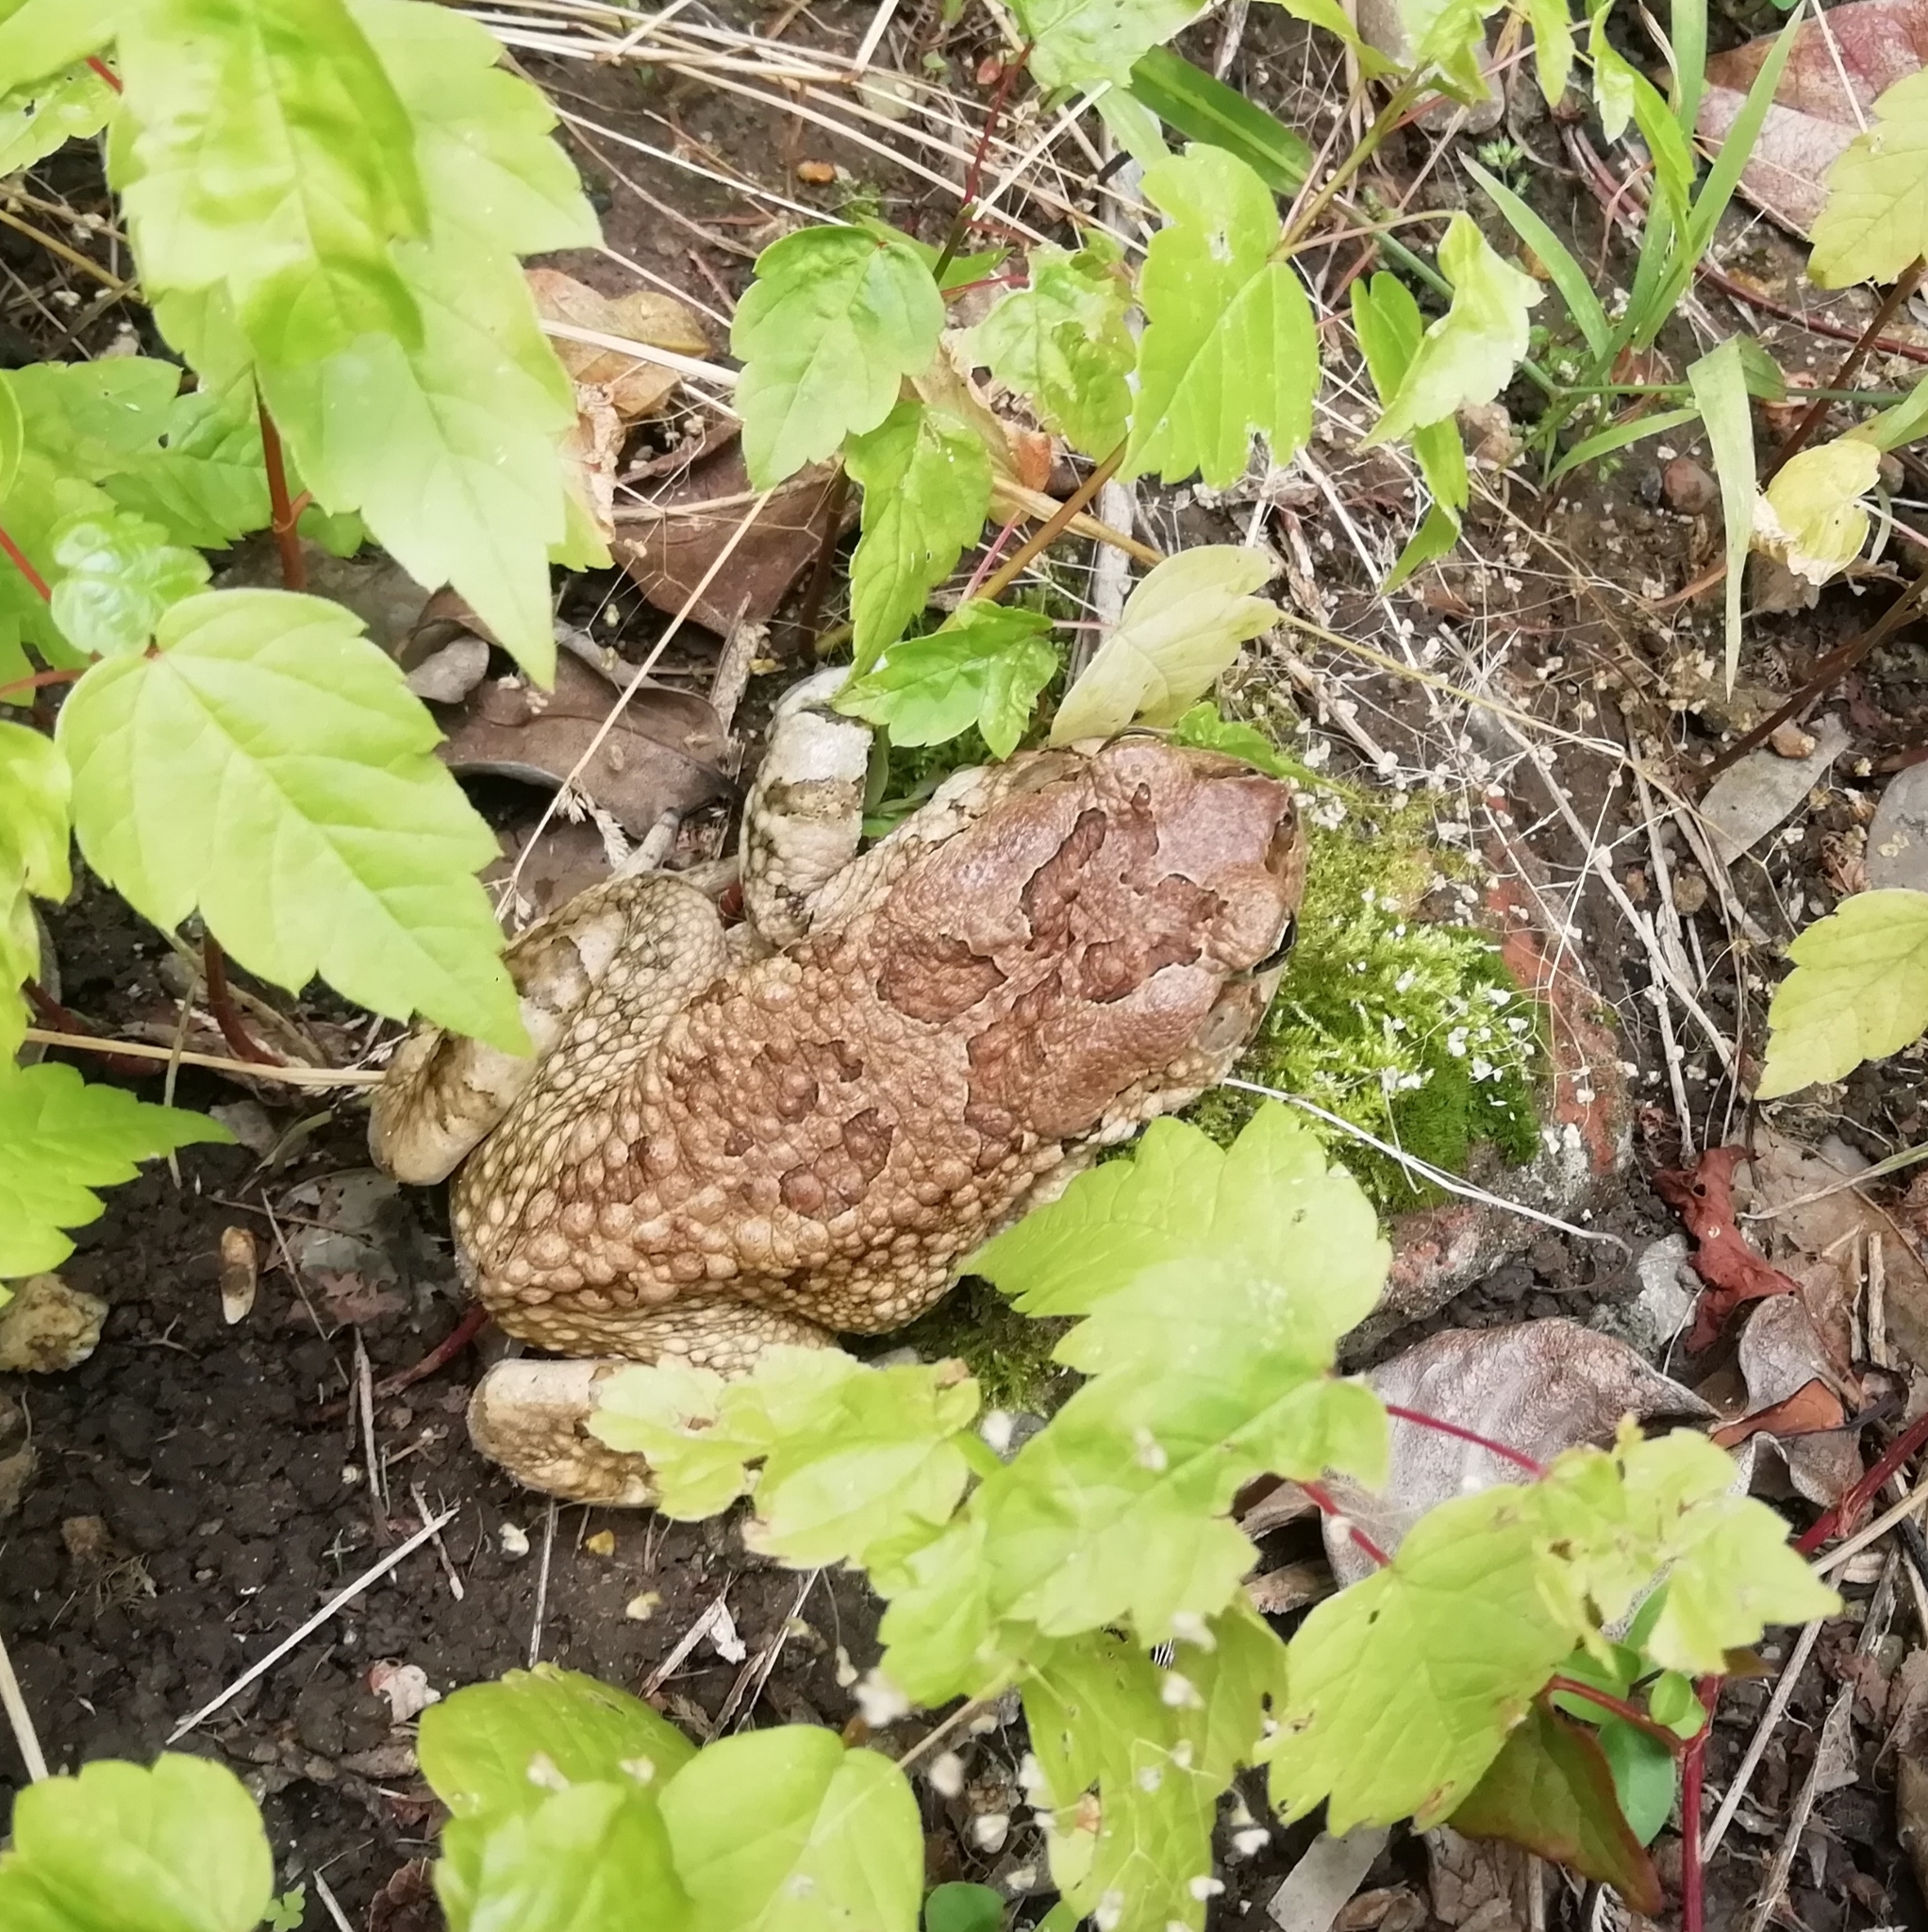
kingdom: Animalia
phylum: Chordata
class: Amphibia
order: Anura
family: Bufonidae
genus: Sclerophrys
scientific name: Sclerophrys capensis
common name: Ranger’s toad
